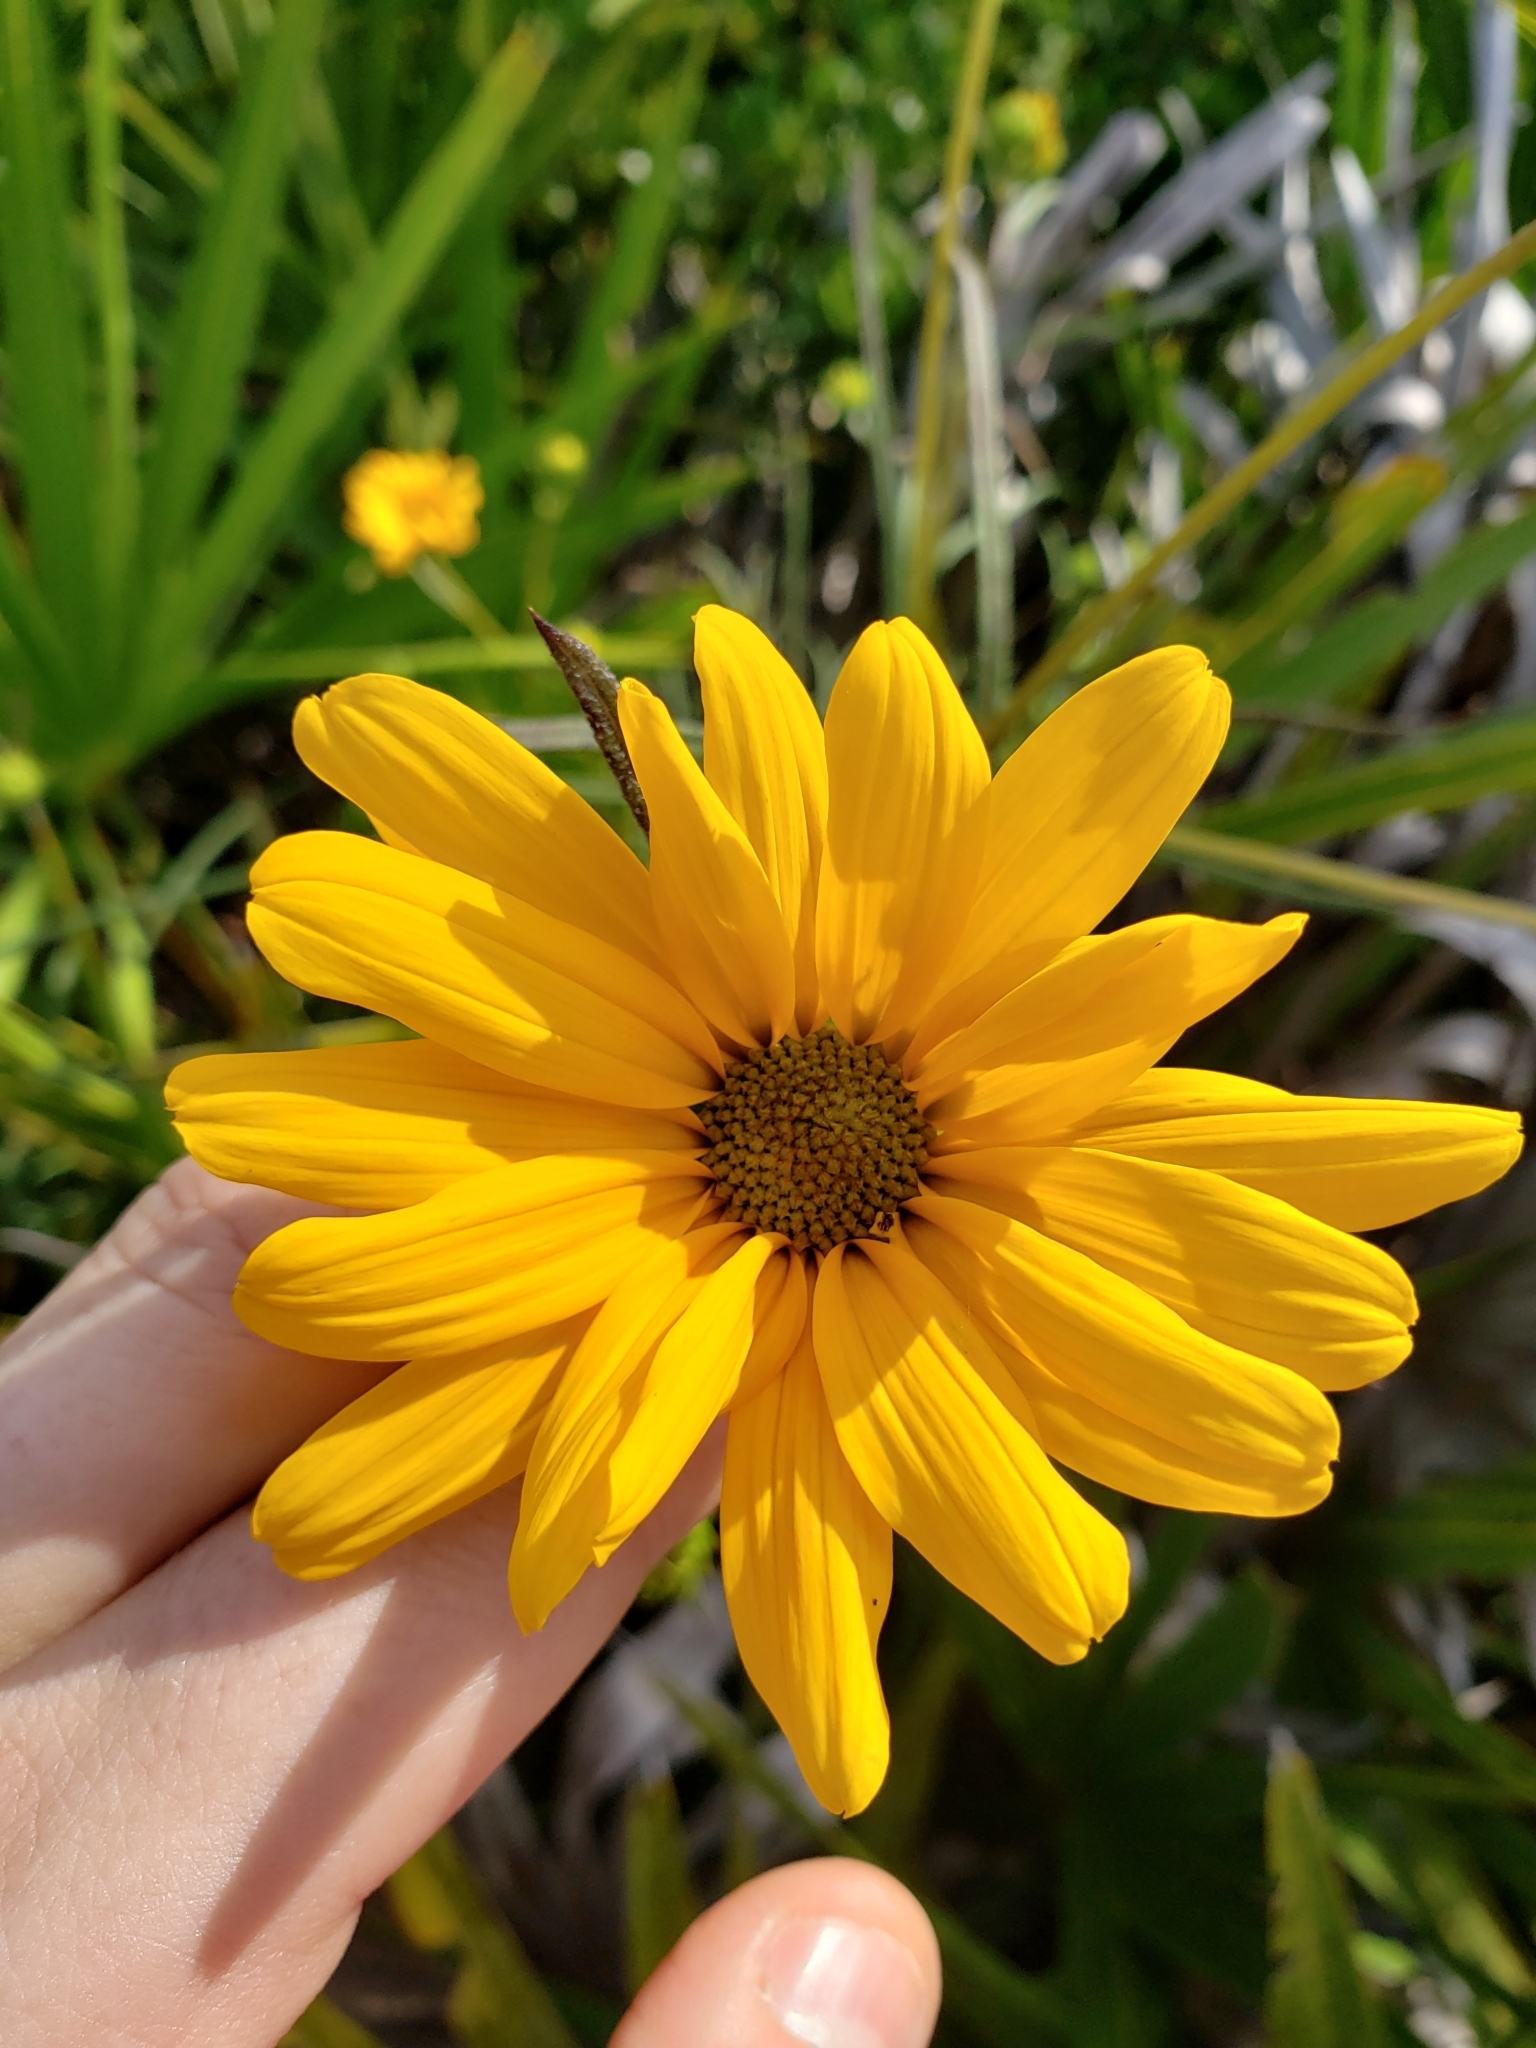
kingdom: Plantae
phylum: Tracheophyta
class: Magnoliopsida
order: Asterales
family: Asteraceae
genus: Helianthus
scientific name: Helianthus angustifolius
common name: Swamp sunflower
